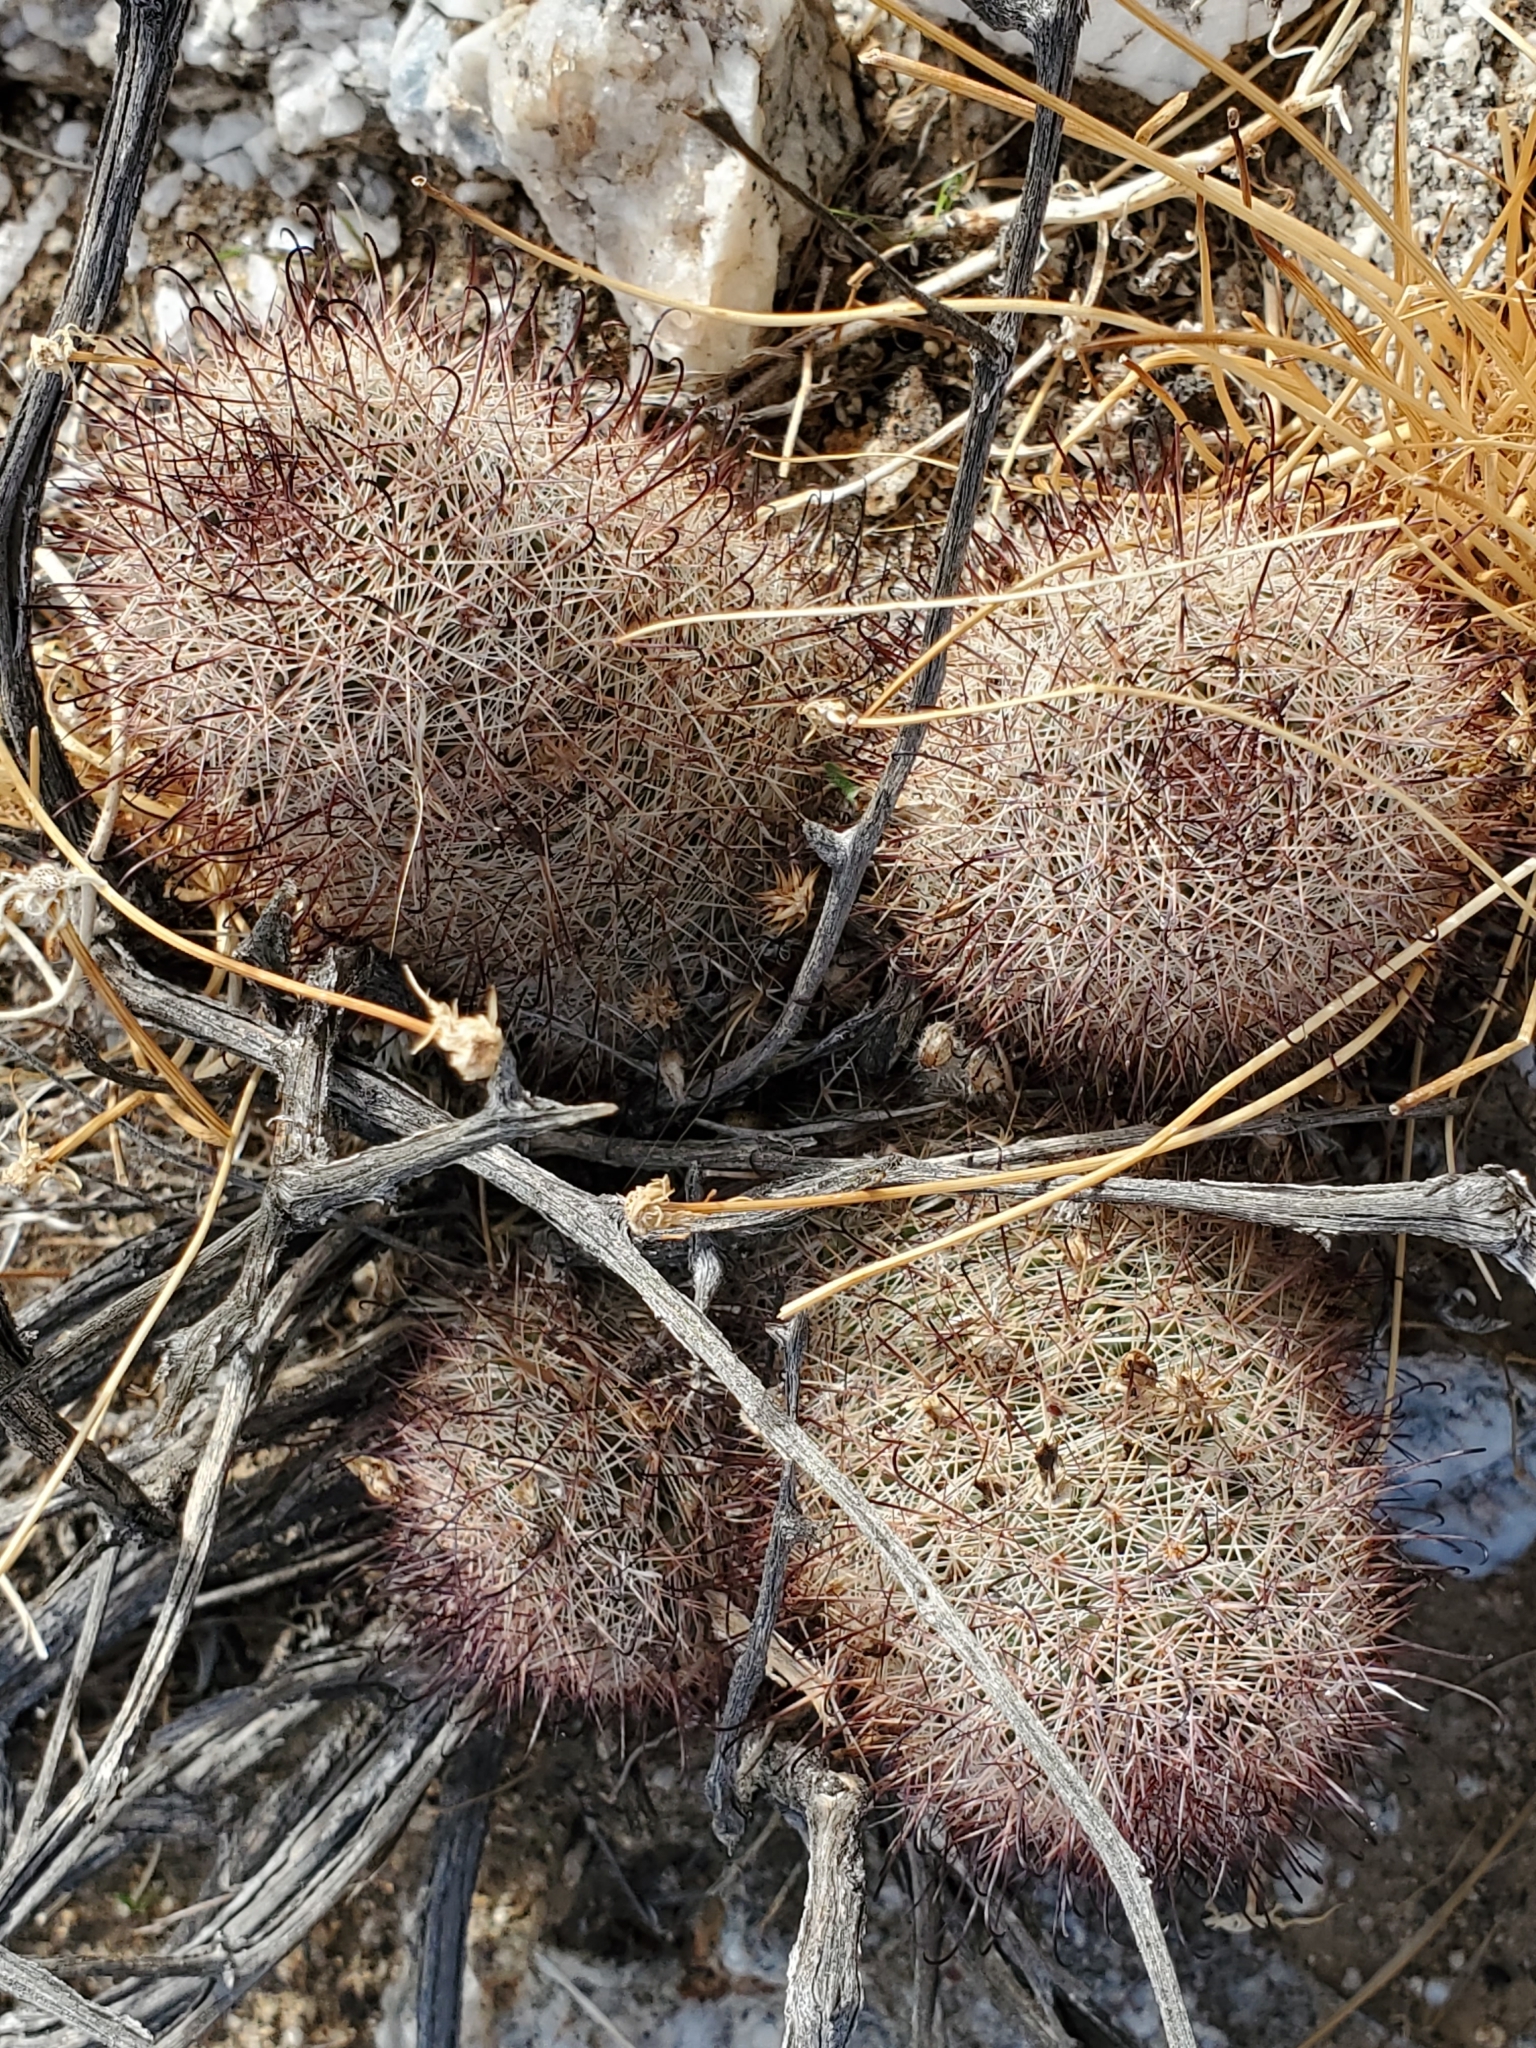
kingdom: Plantae
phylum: Tracheophyta
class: Magnoliopsida
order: Caryophyllales
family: Cactaceae
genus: Cochemiea
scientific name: Cochemiea dioica
